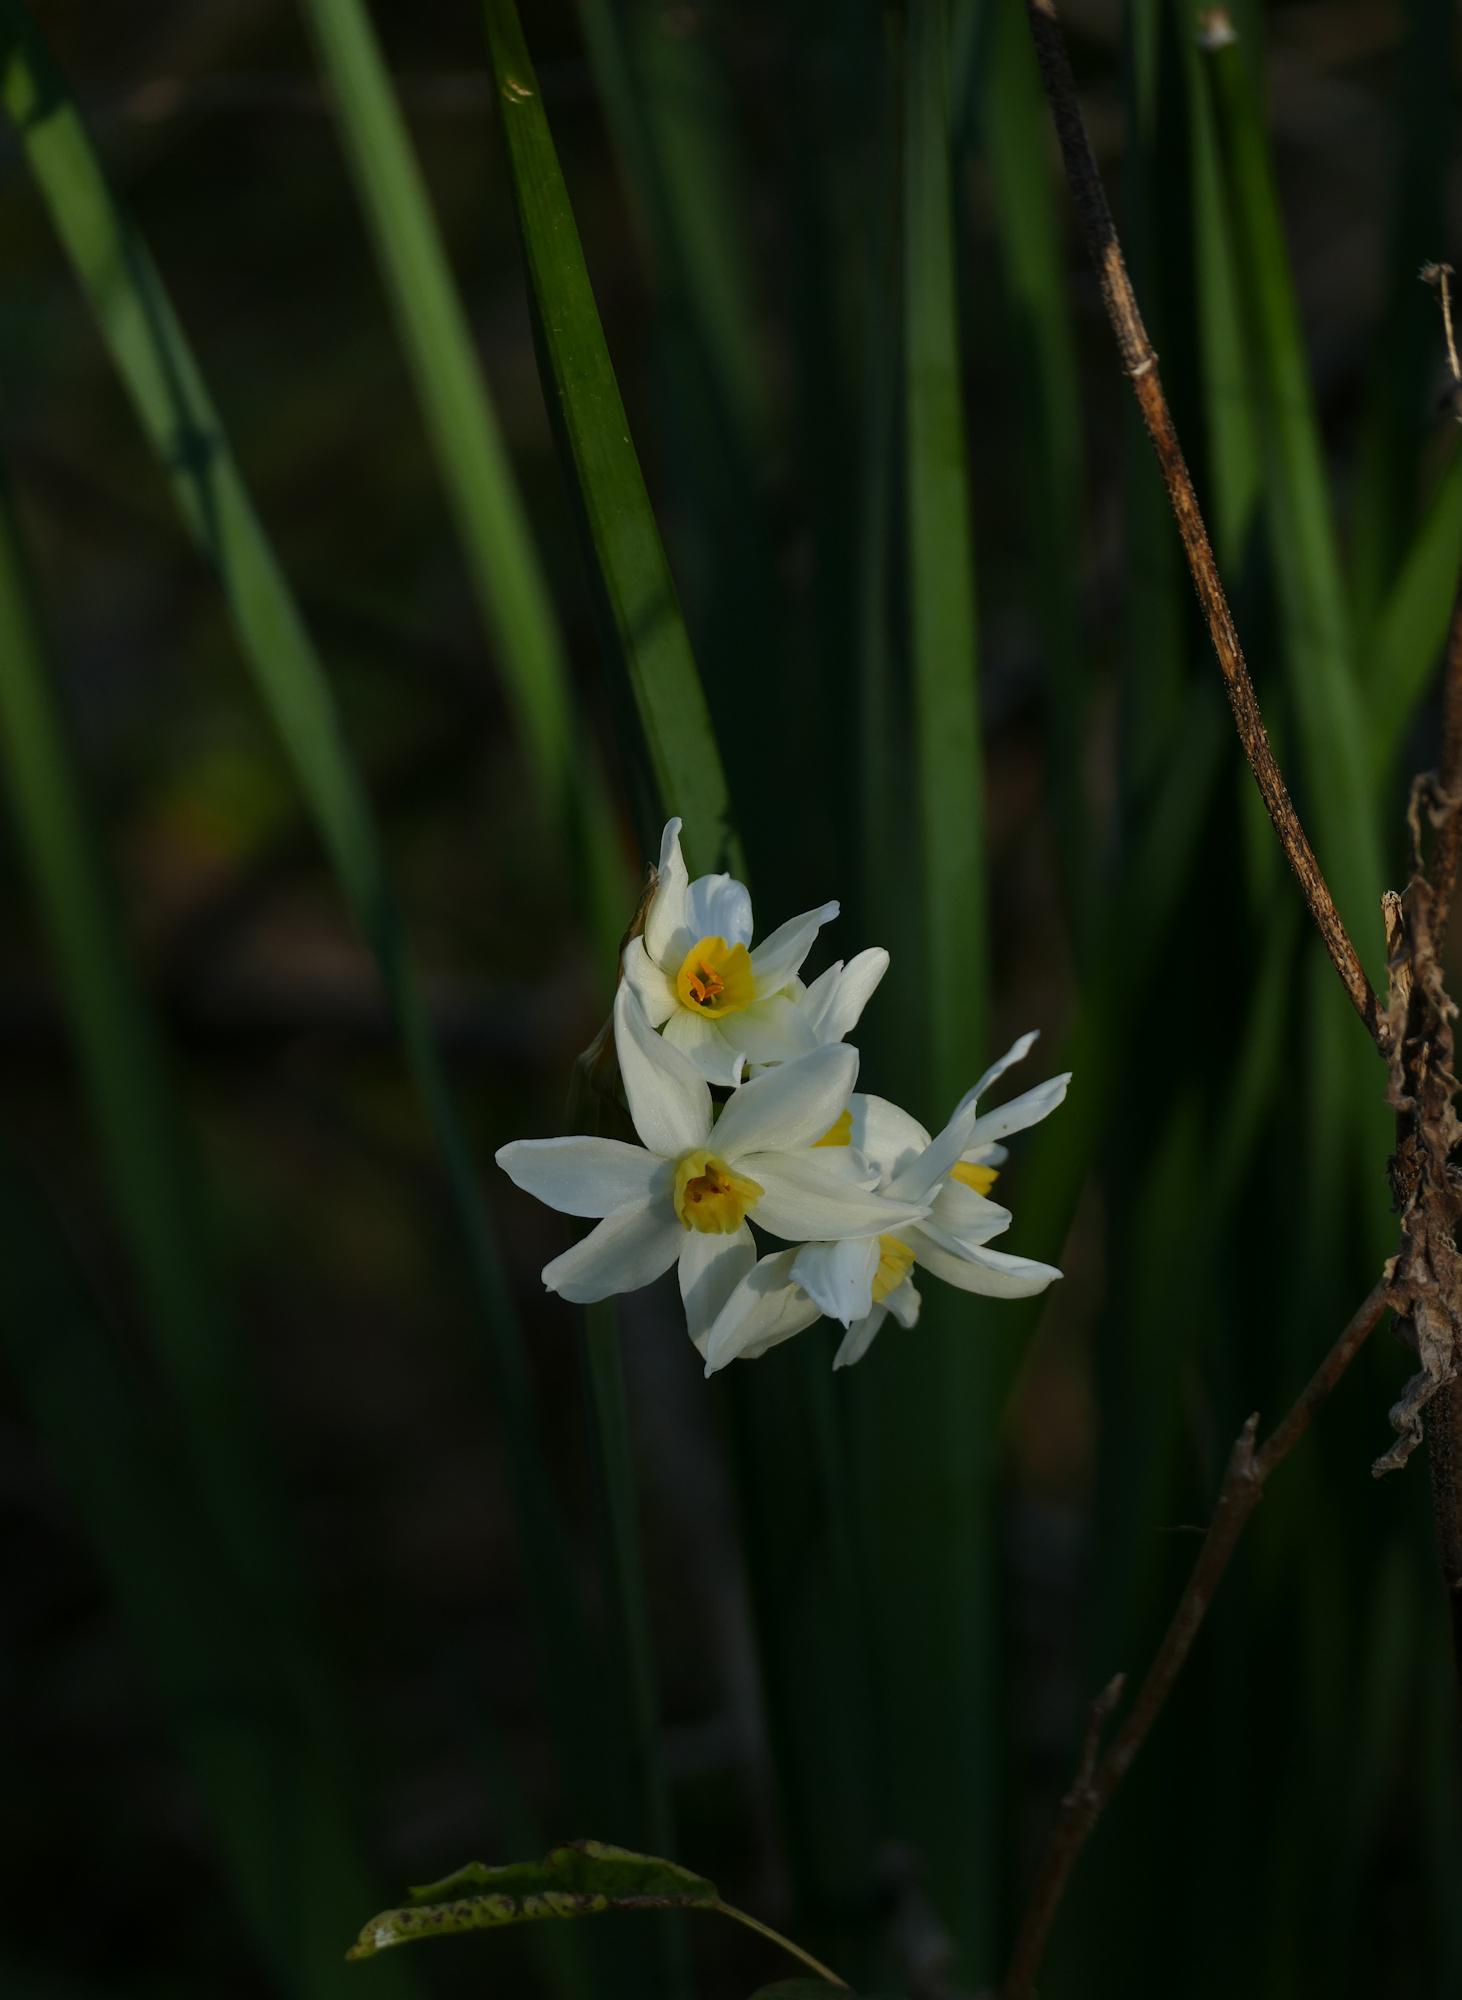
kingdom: Plantae
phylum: Tracheophyta
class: Liliopsida
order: Asparagales
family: Amaryllidaceae
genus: Narcissus
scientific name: Narcissus tazetta
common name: Bunch-flowered daffodil
